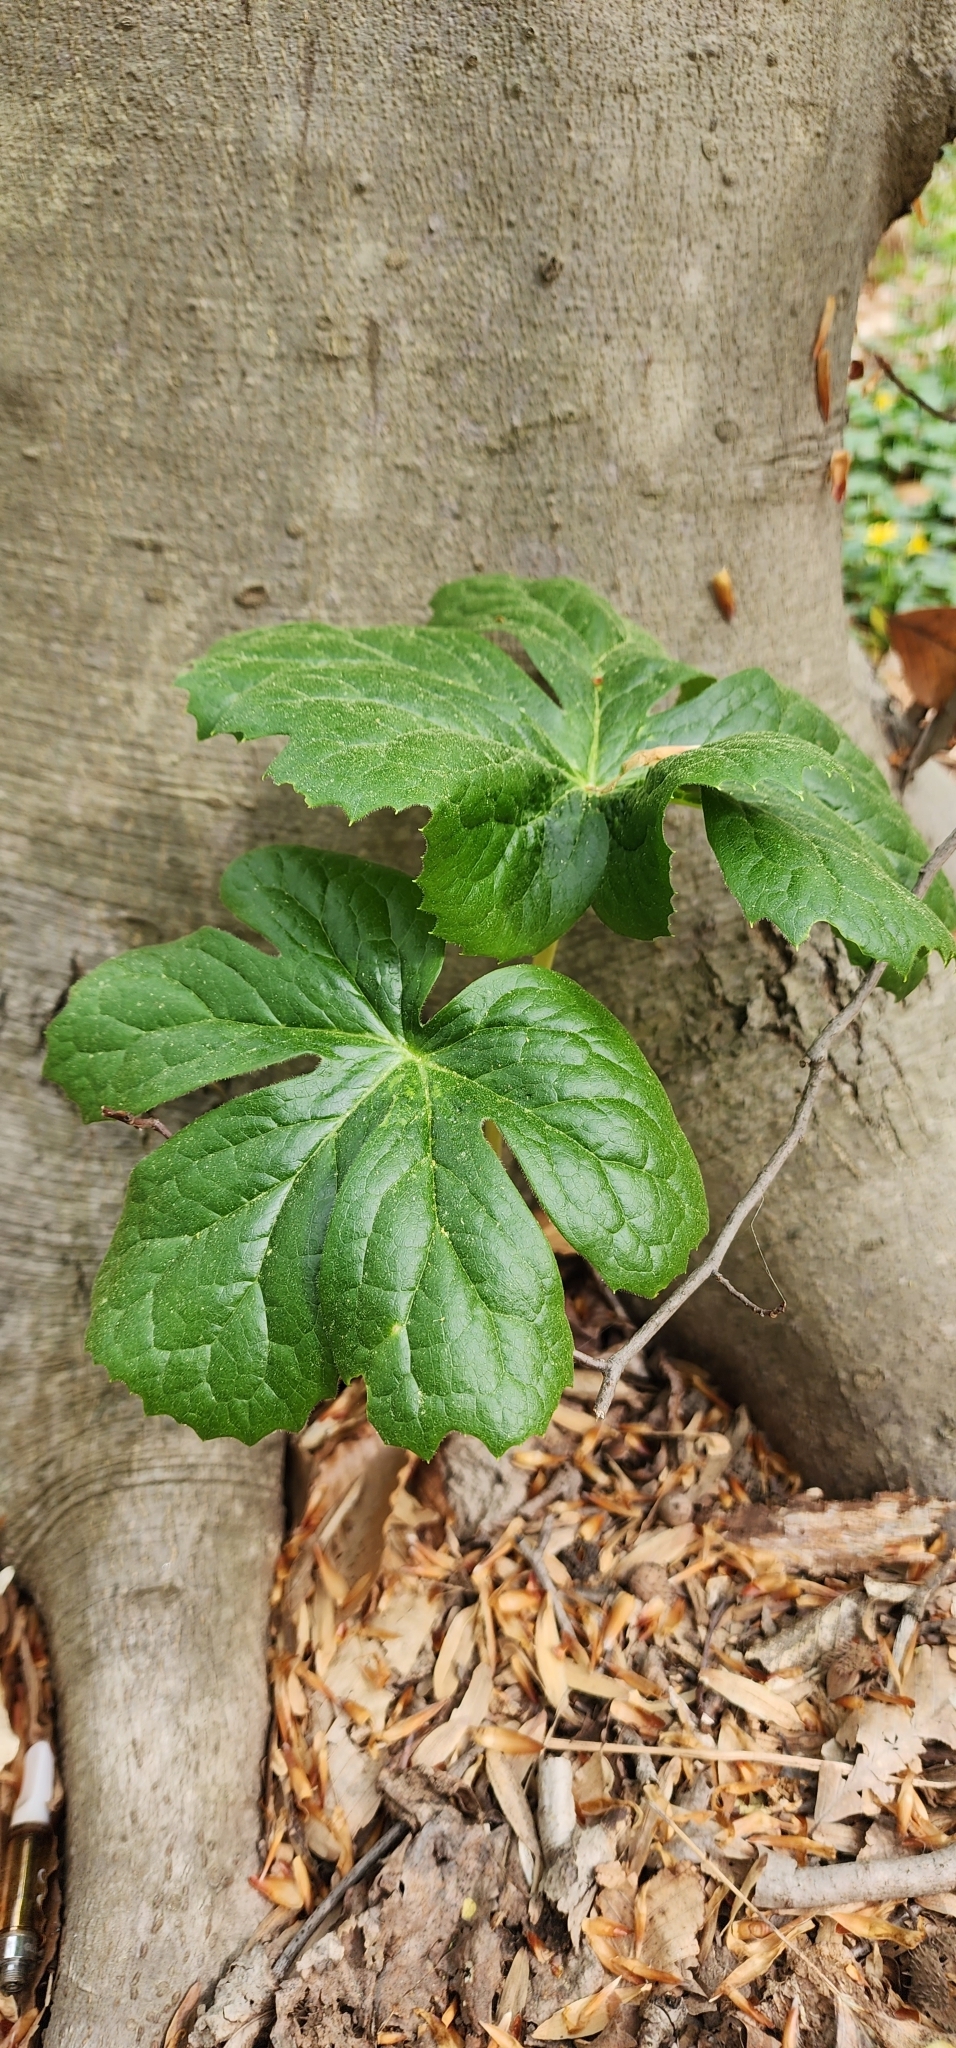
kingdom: Plantae
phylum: Tracheophyta
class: Magnoliopsida
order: Ranunculales
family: Berberidaceae
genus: Podophyllum
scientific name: Podophyllum peltatum
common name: Wild mandrake
